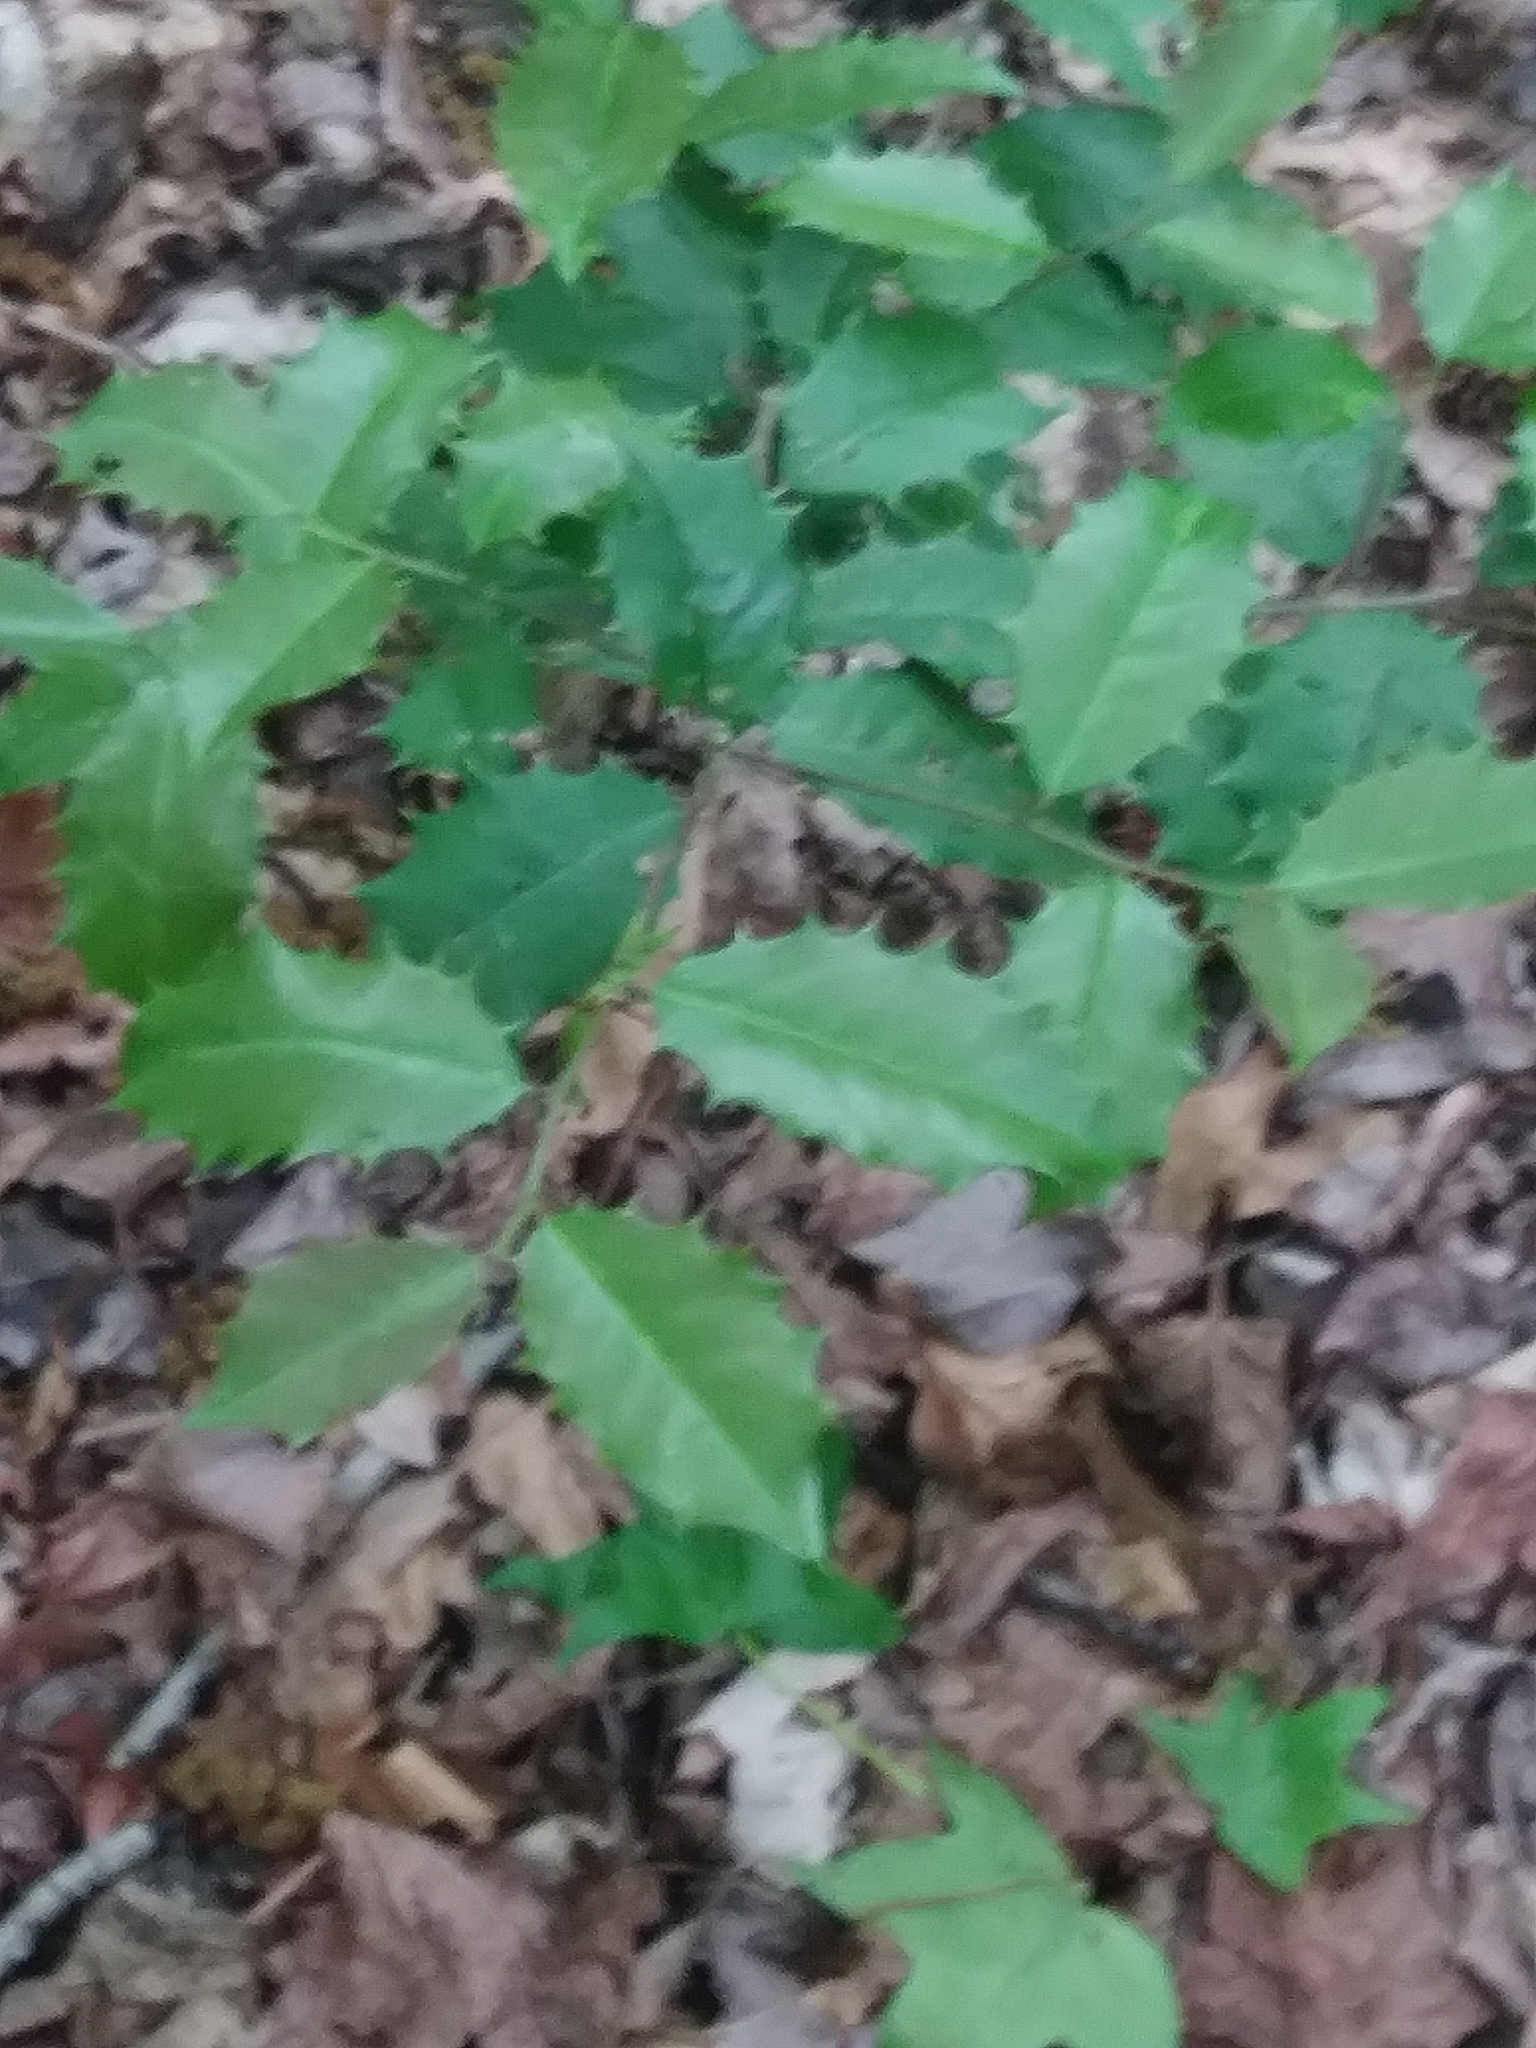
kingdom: Plantae
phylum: Tracheophyta
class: Magnoliopsida
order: Aquifoliales
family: Aquifoliaceae
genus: Ilex
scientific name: Ilex opaca
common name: American holly
